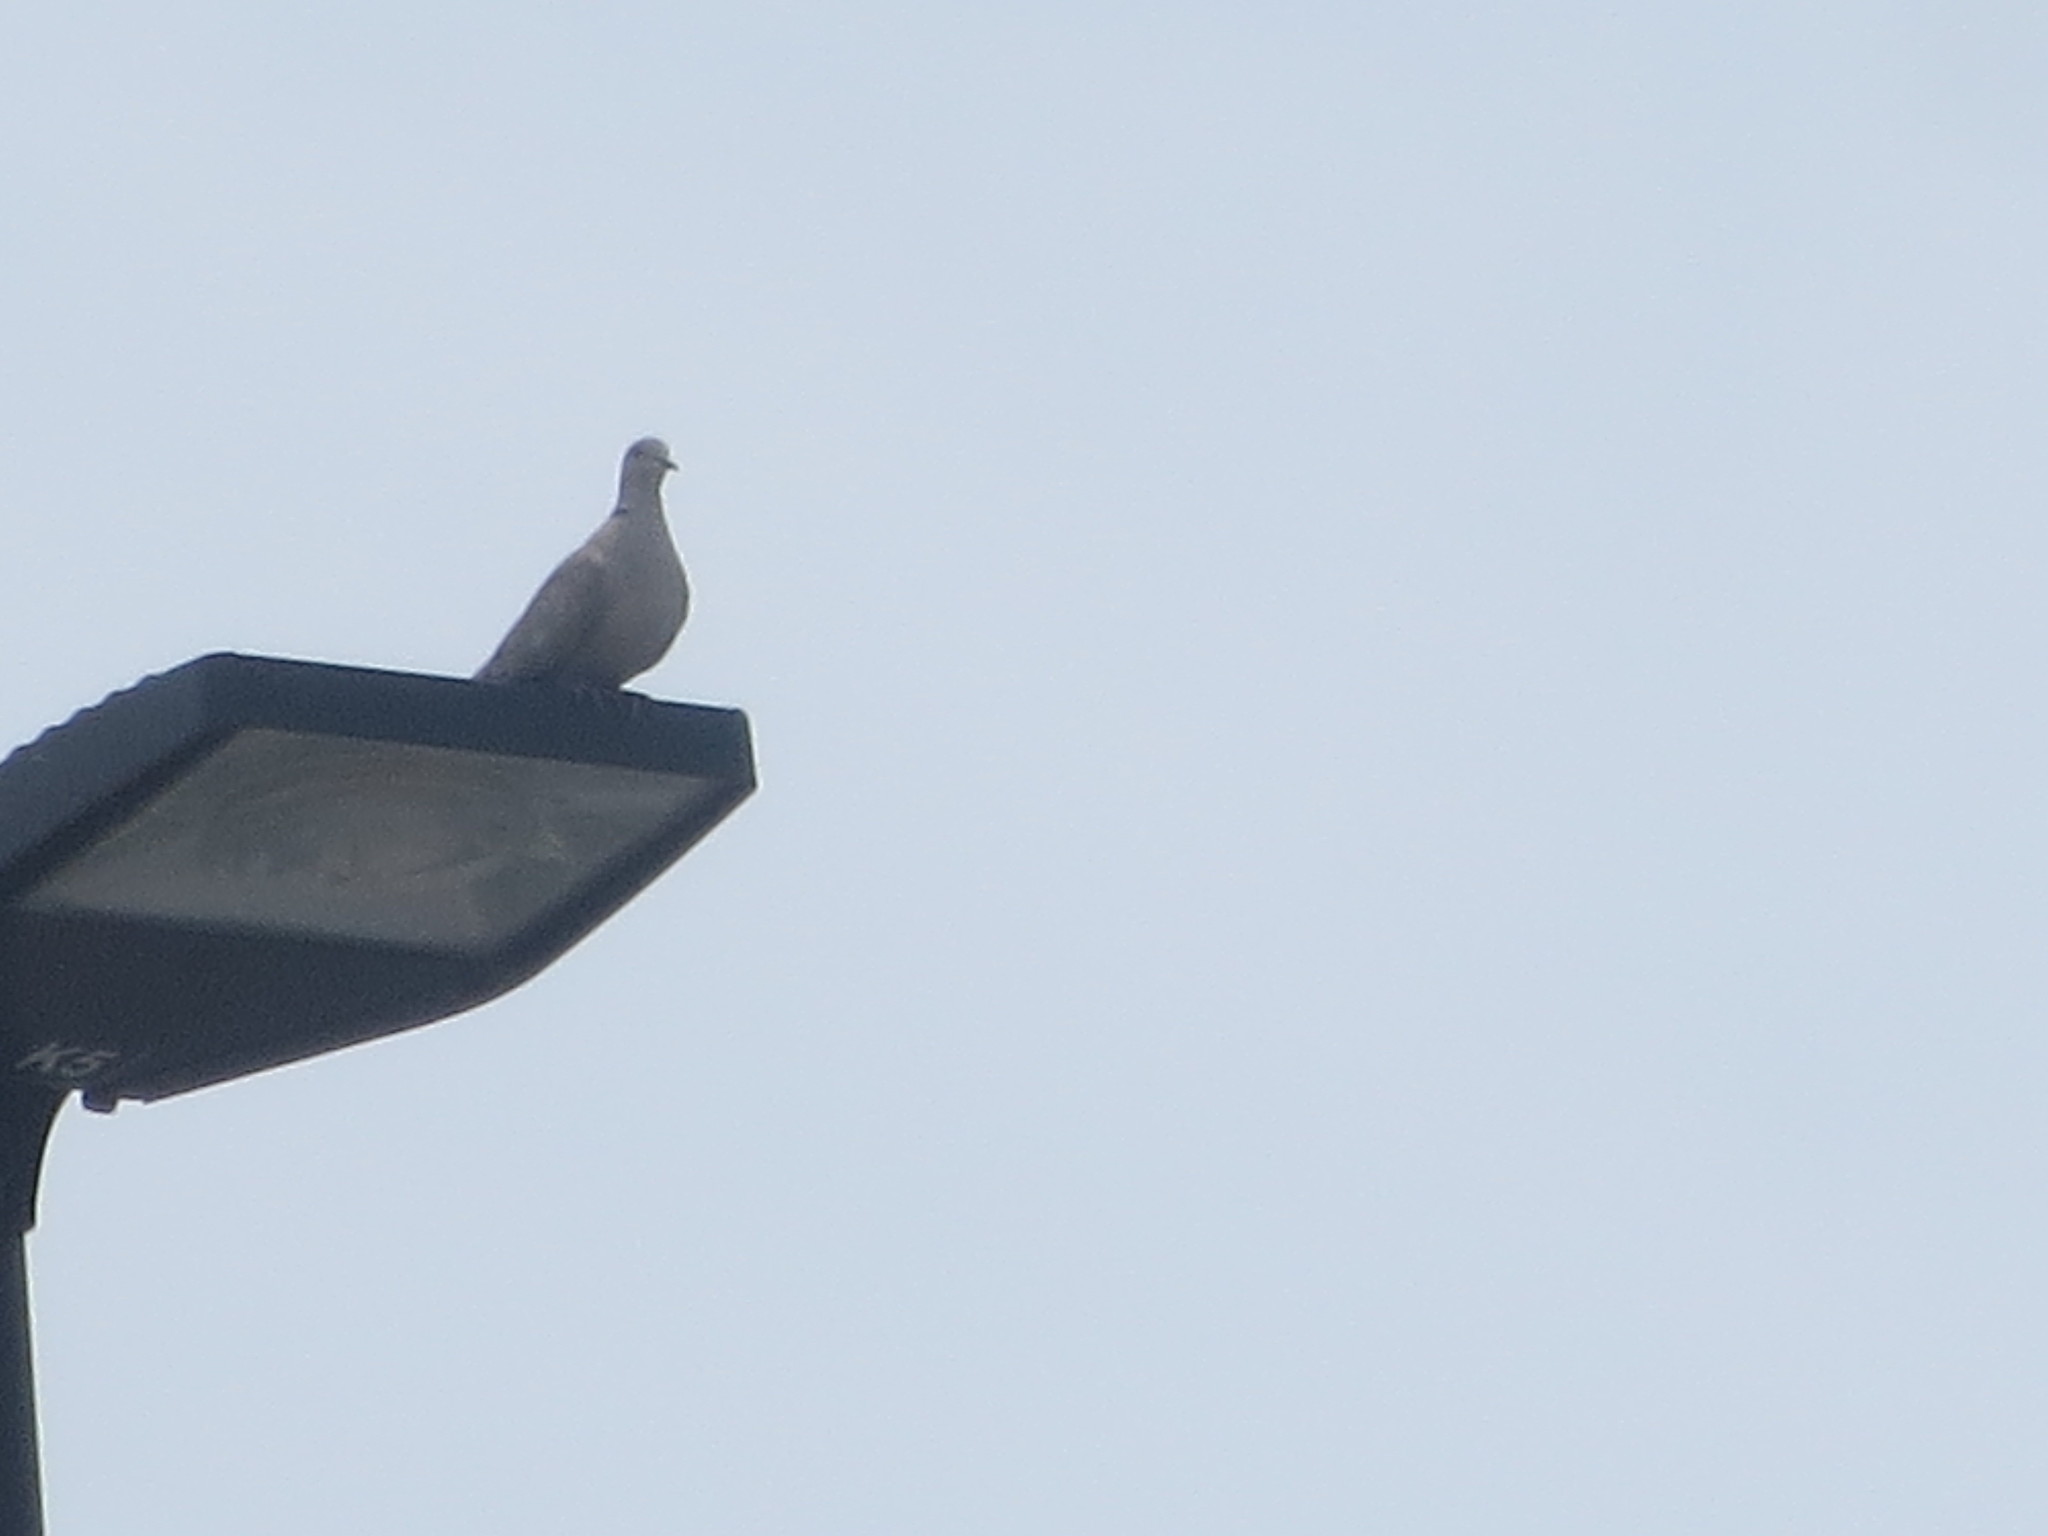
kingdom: Animalia
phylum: Chordata
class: Aves
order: Columbiformes
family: Columbidae
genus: Streptopelia
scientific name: Streptopelia decaocto
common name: Eurasian collared dove
